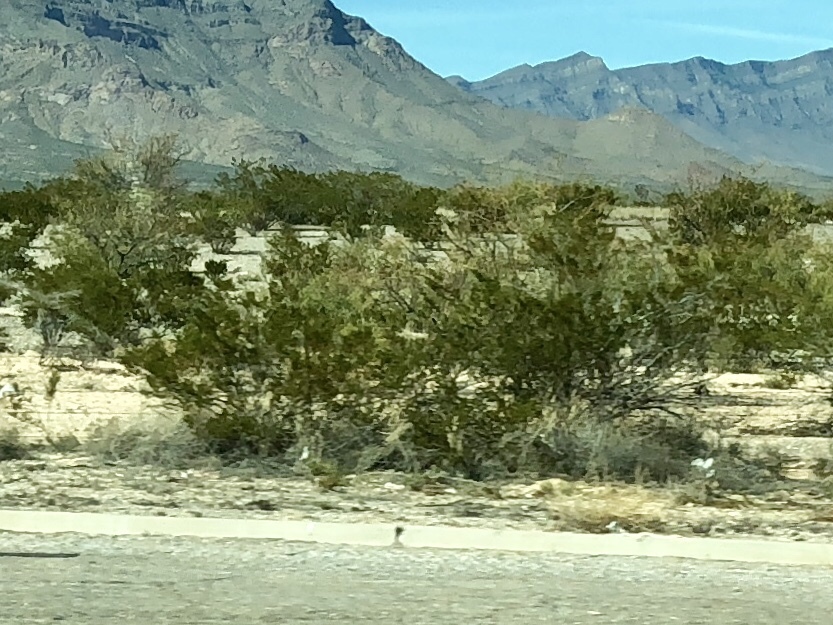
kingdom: Plantae
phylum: Tracheophyta
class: Magnoliopsida
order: Zygophyllales
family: Zygophyllaceae
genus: Larrea
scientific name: Larrea tridentata
